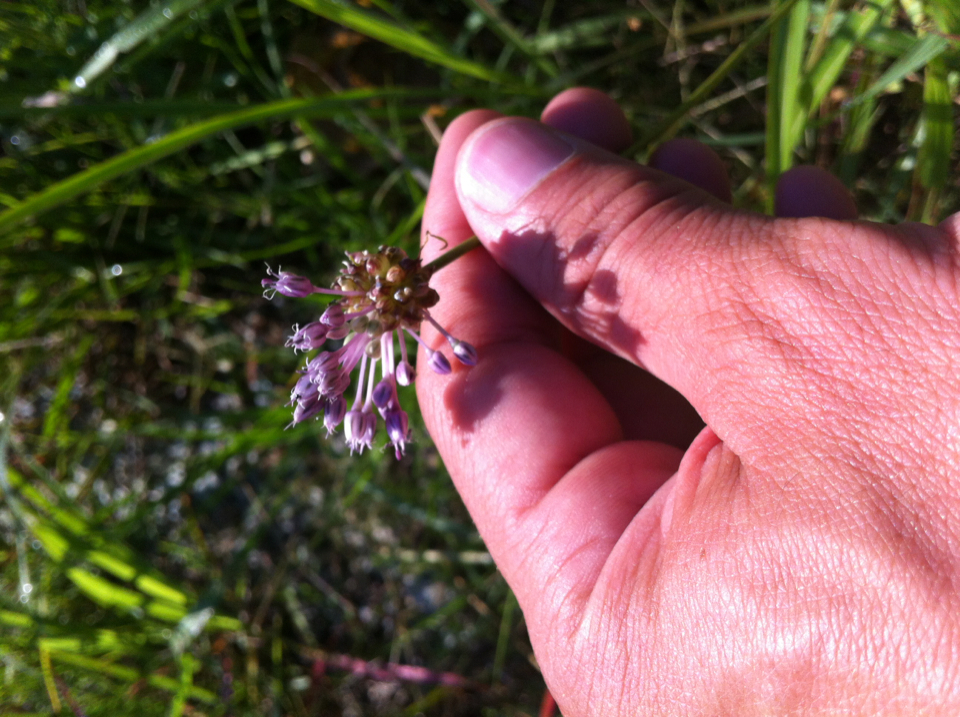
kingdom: Plantae
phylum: Tracheophyta
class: Liliopsida
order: Asparagales
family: Amaryllidaceae
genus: Allium
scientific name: Allium vineale
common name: Crow garlic
